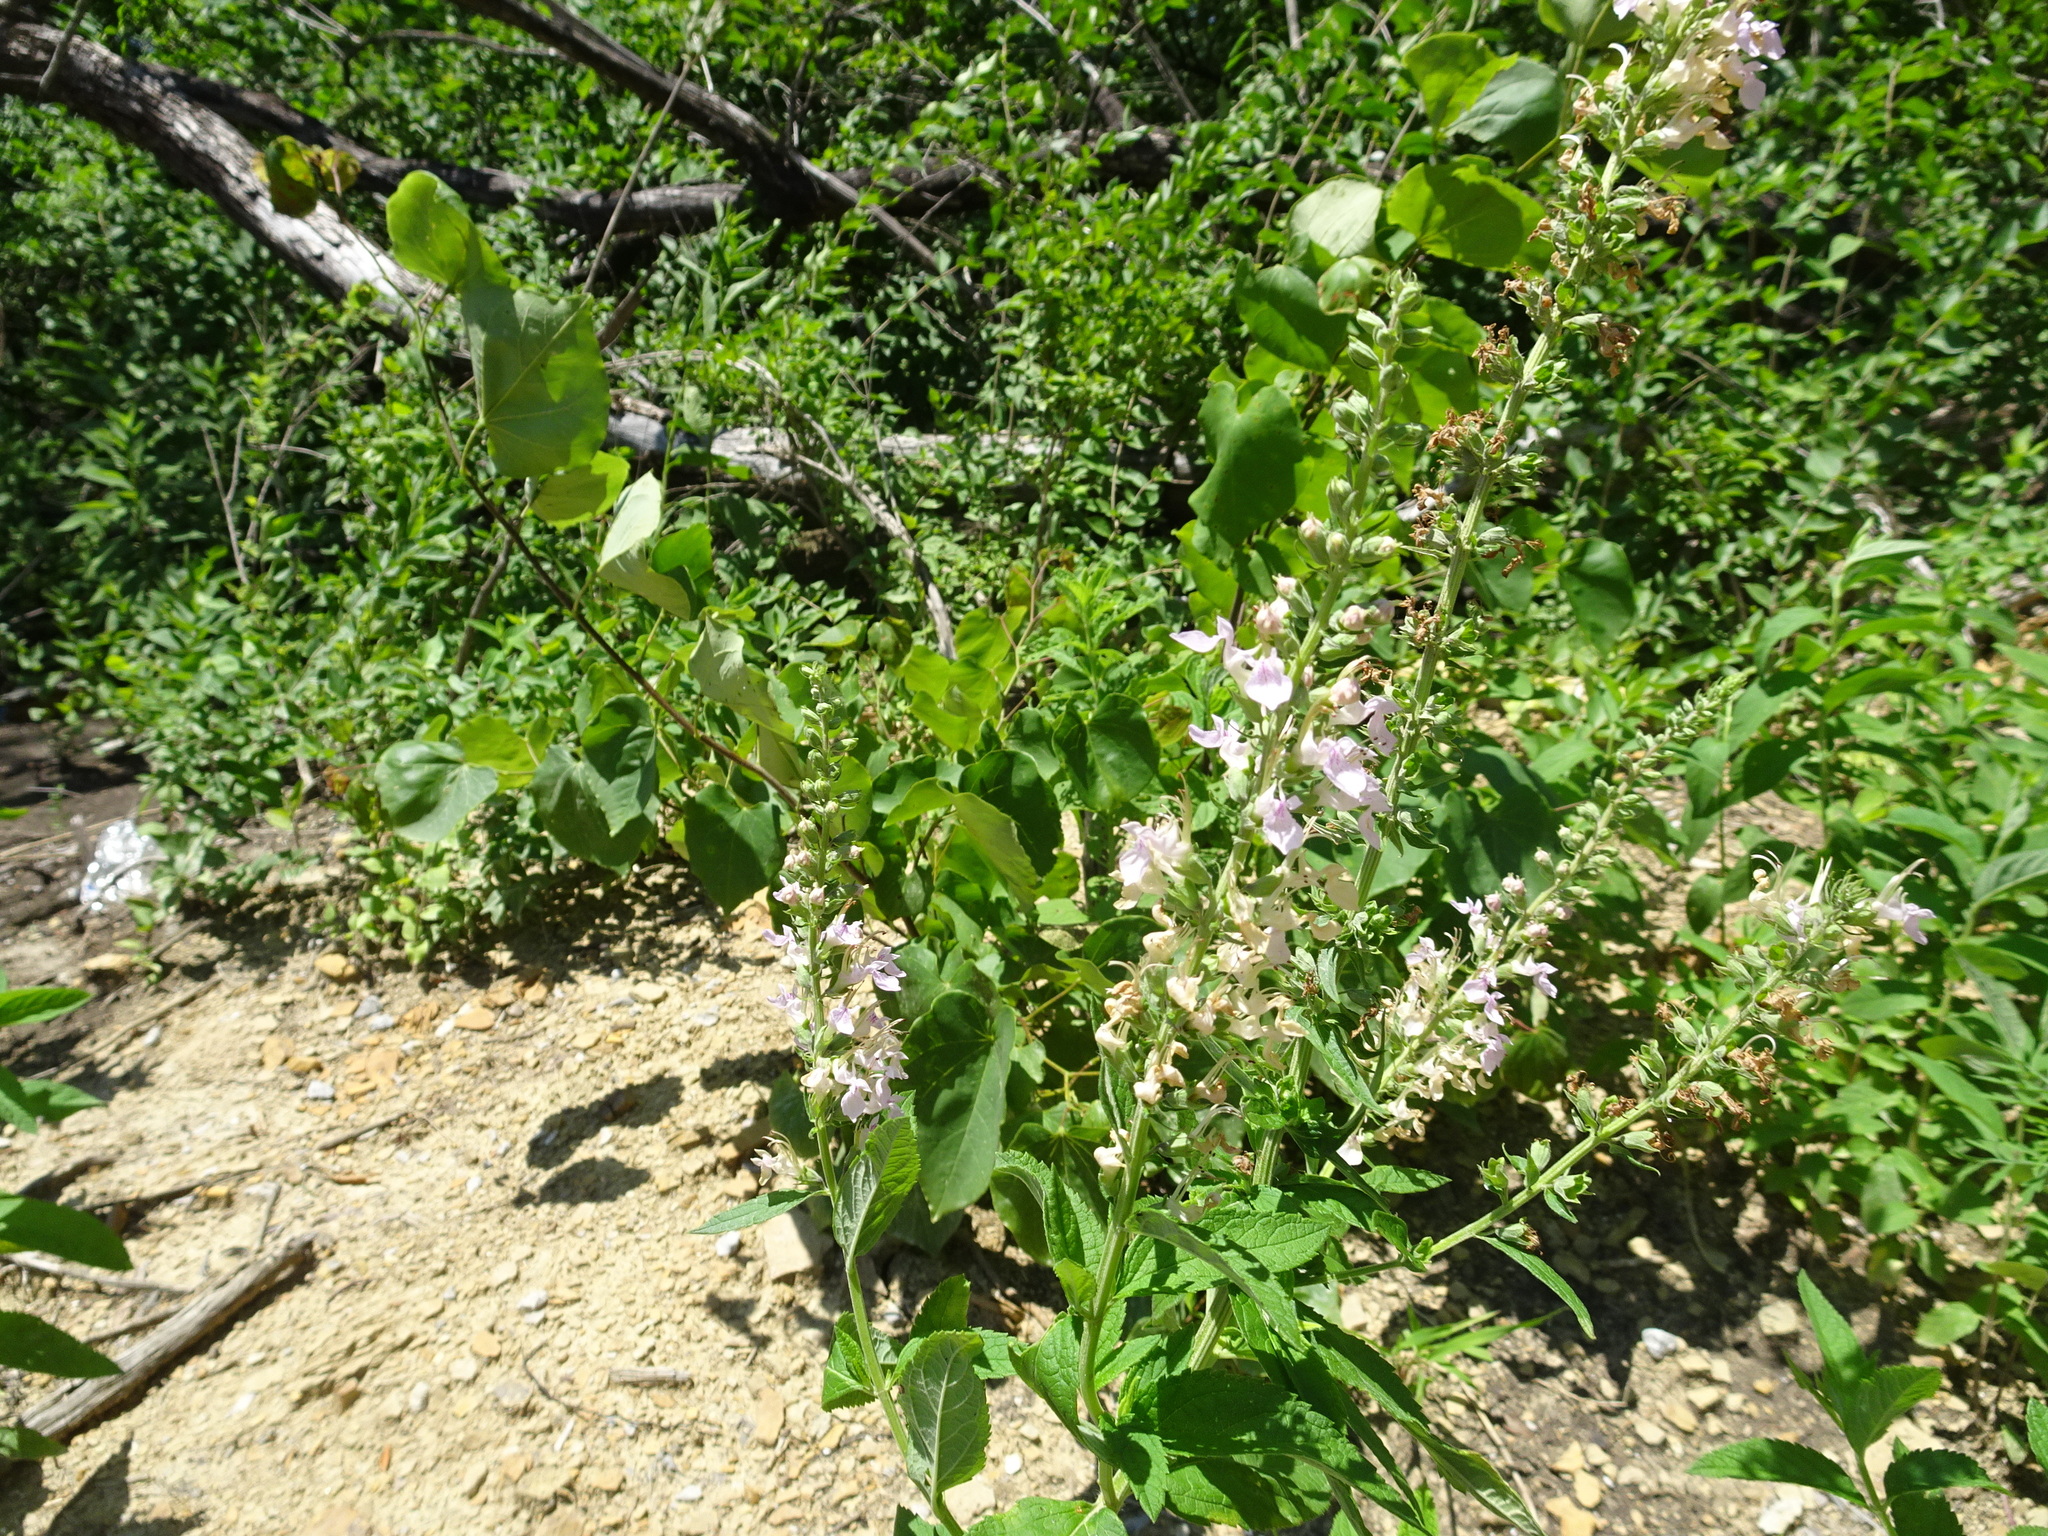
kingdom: Plantae
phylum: Tracheophyta
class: Magnoliopsida
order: Lamiales
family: Lamiaceae
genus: Teucrium
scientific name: Teucrium canadense
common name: American germander
